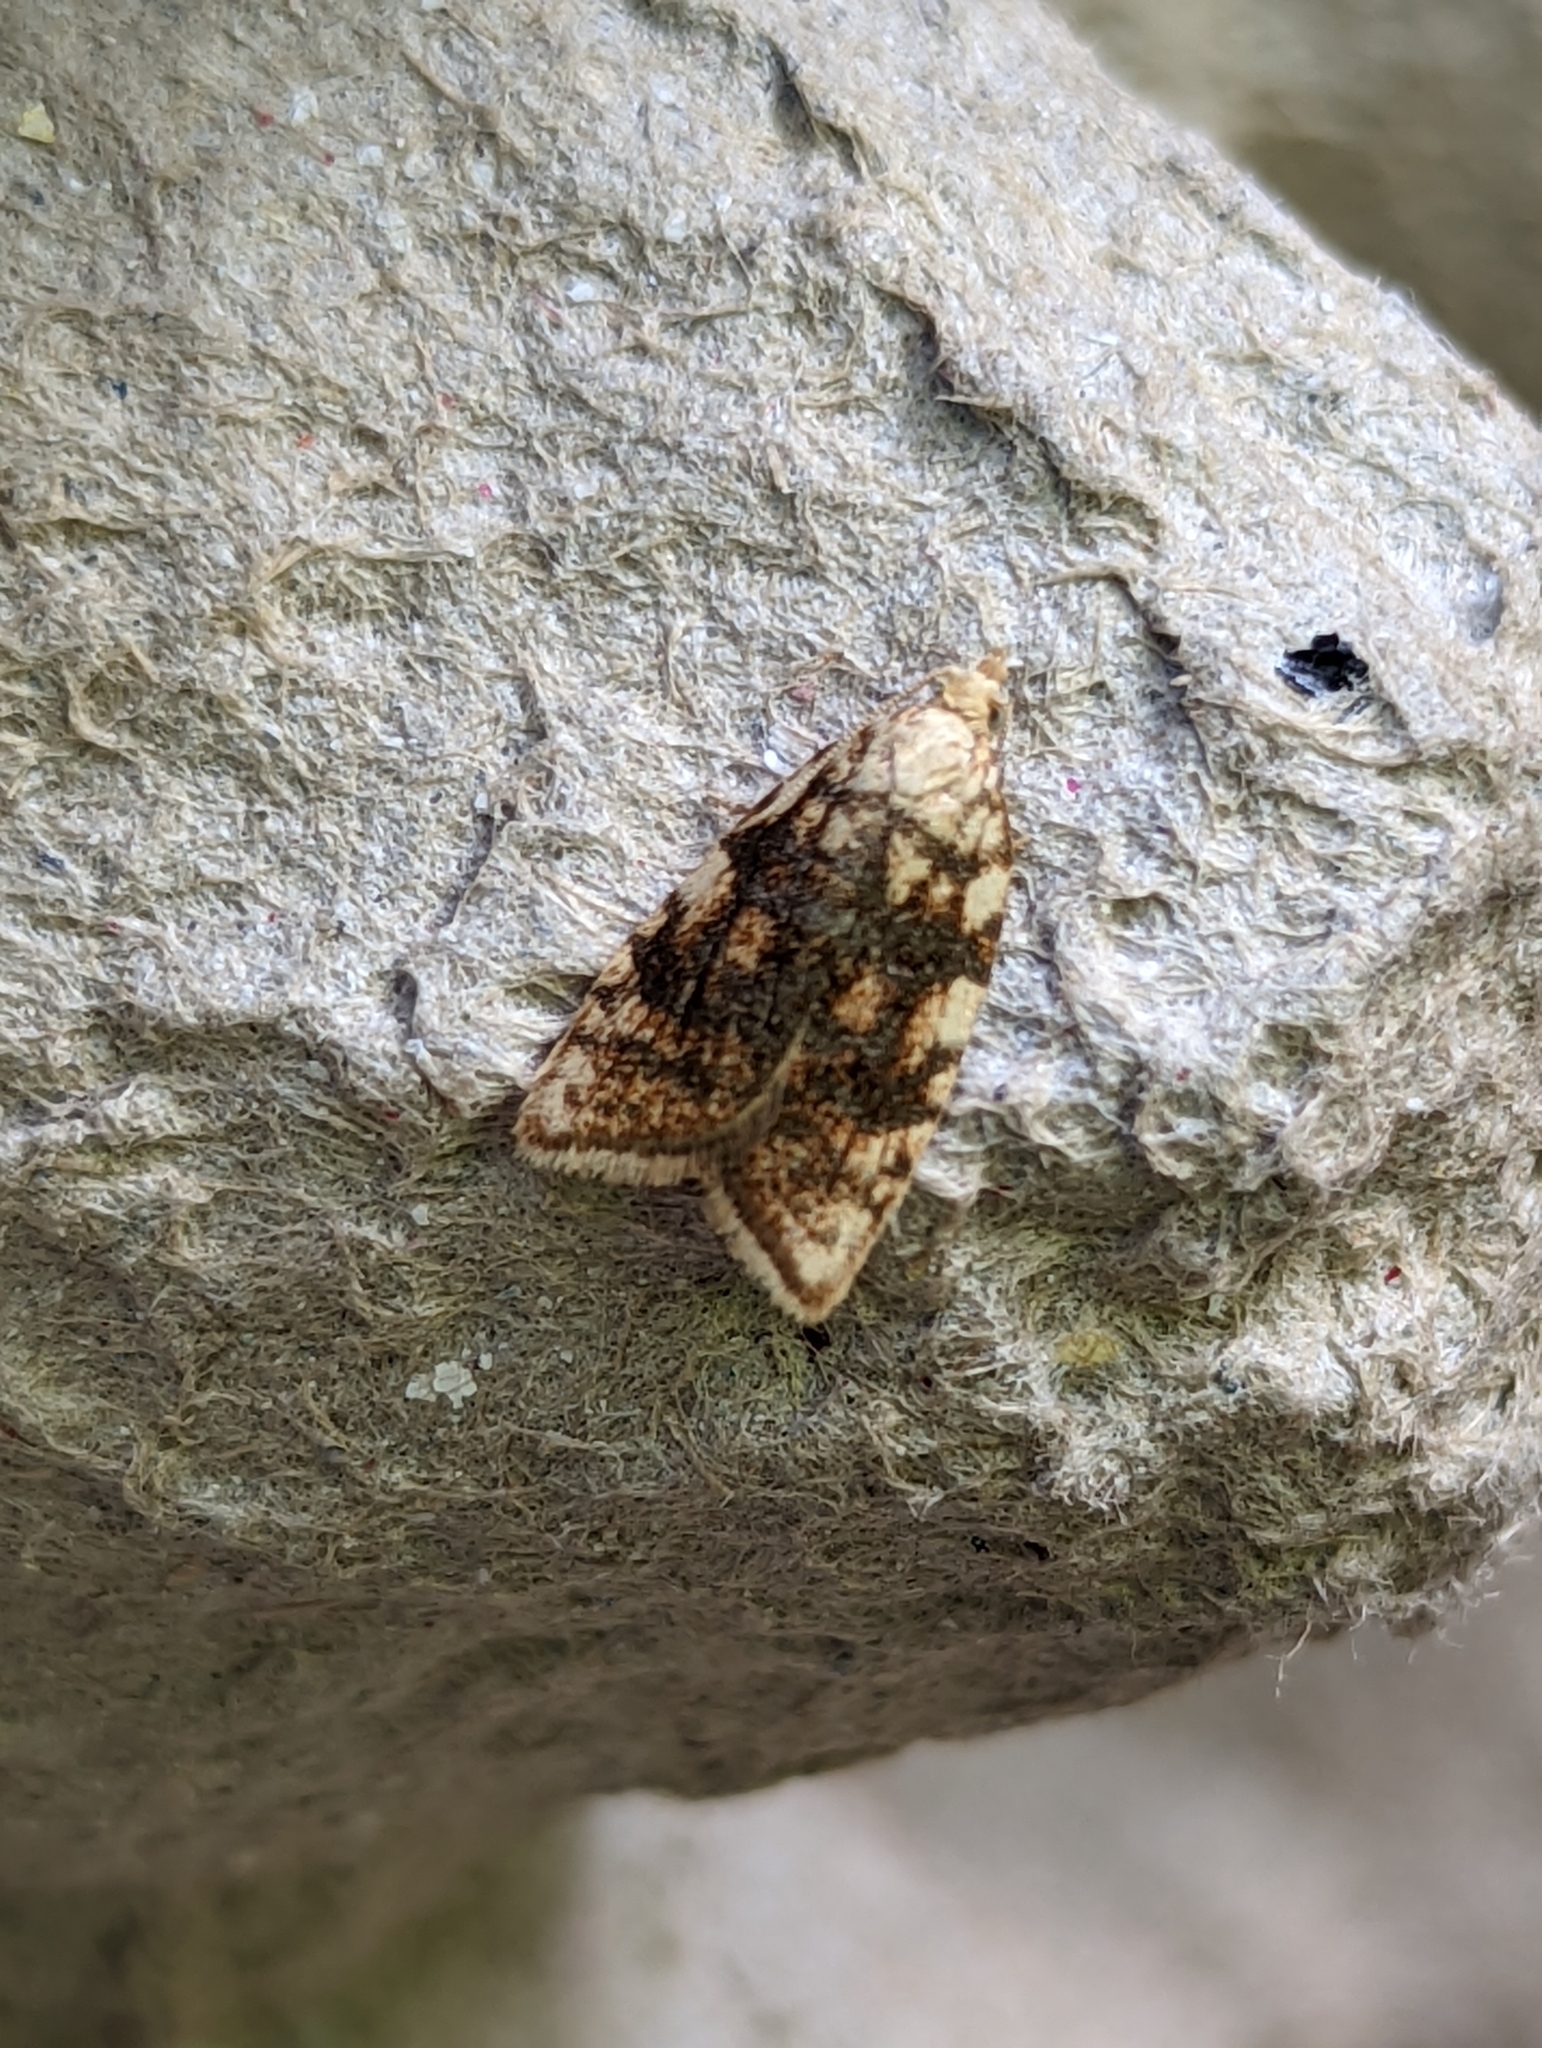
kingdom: Animalia
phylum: Arthropoda
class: Insecta
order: Lepidoptera
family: Tortricidae
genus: Aleimma
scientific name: Aleimma loeflingiana
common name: Yellow oak button
